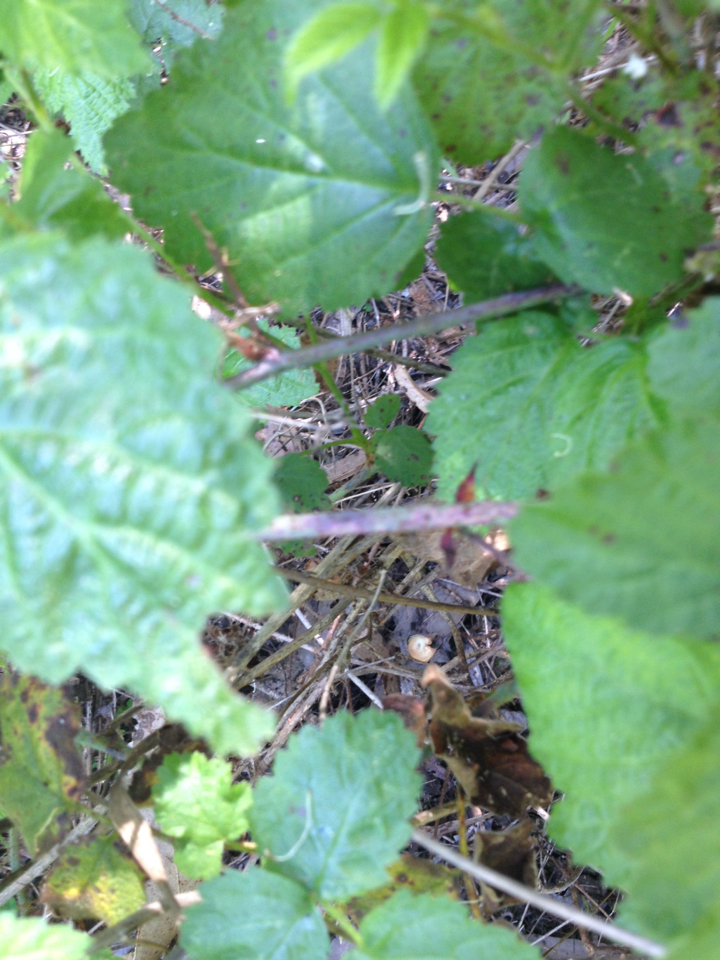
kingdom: Plantae
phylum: Tracheophyta
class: Magnoliopsida
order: Rosales
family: Rosaceae
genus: Rubus
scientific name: Rubus ursinus
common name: Pacific blackberry
